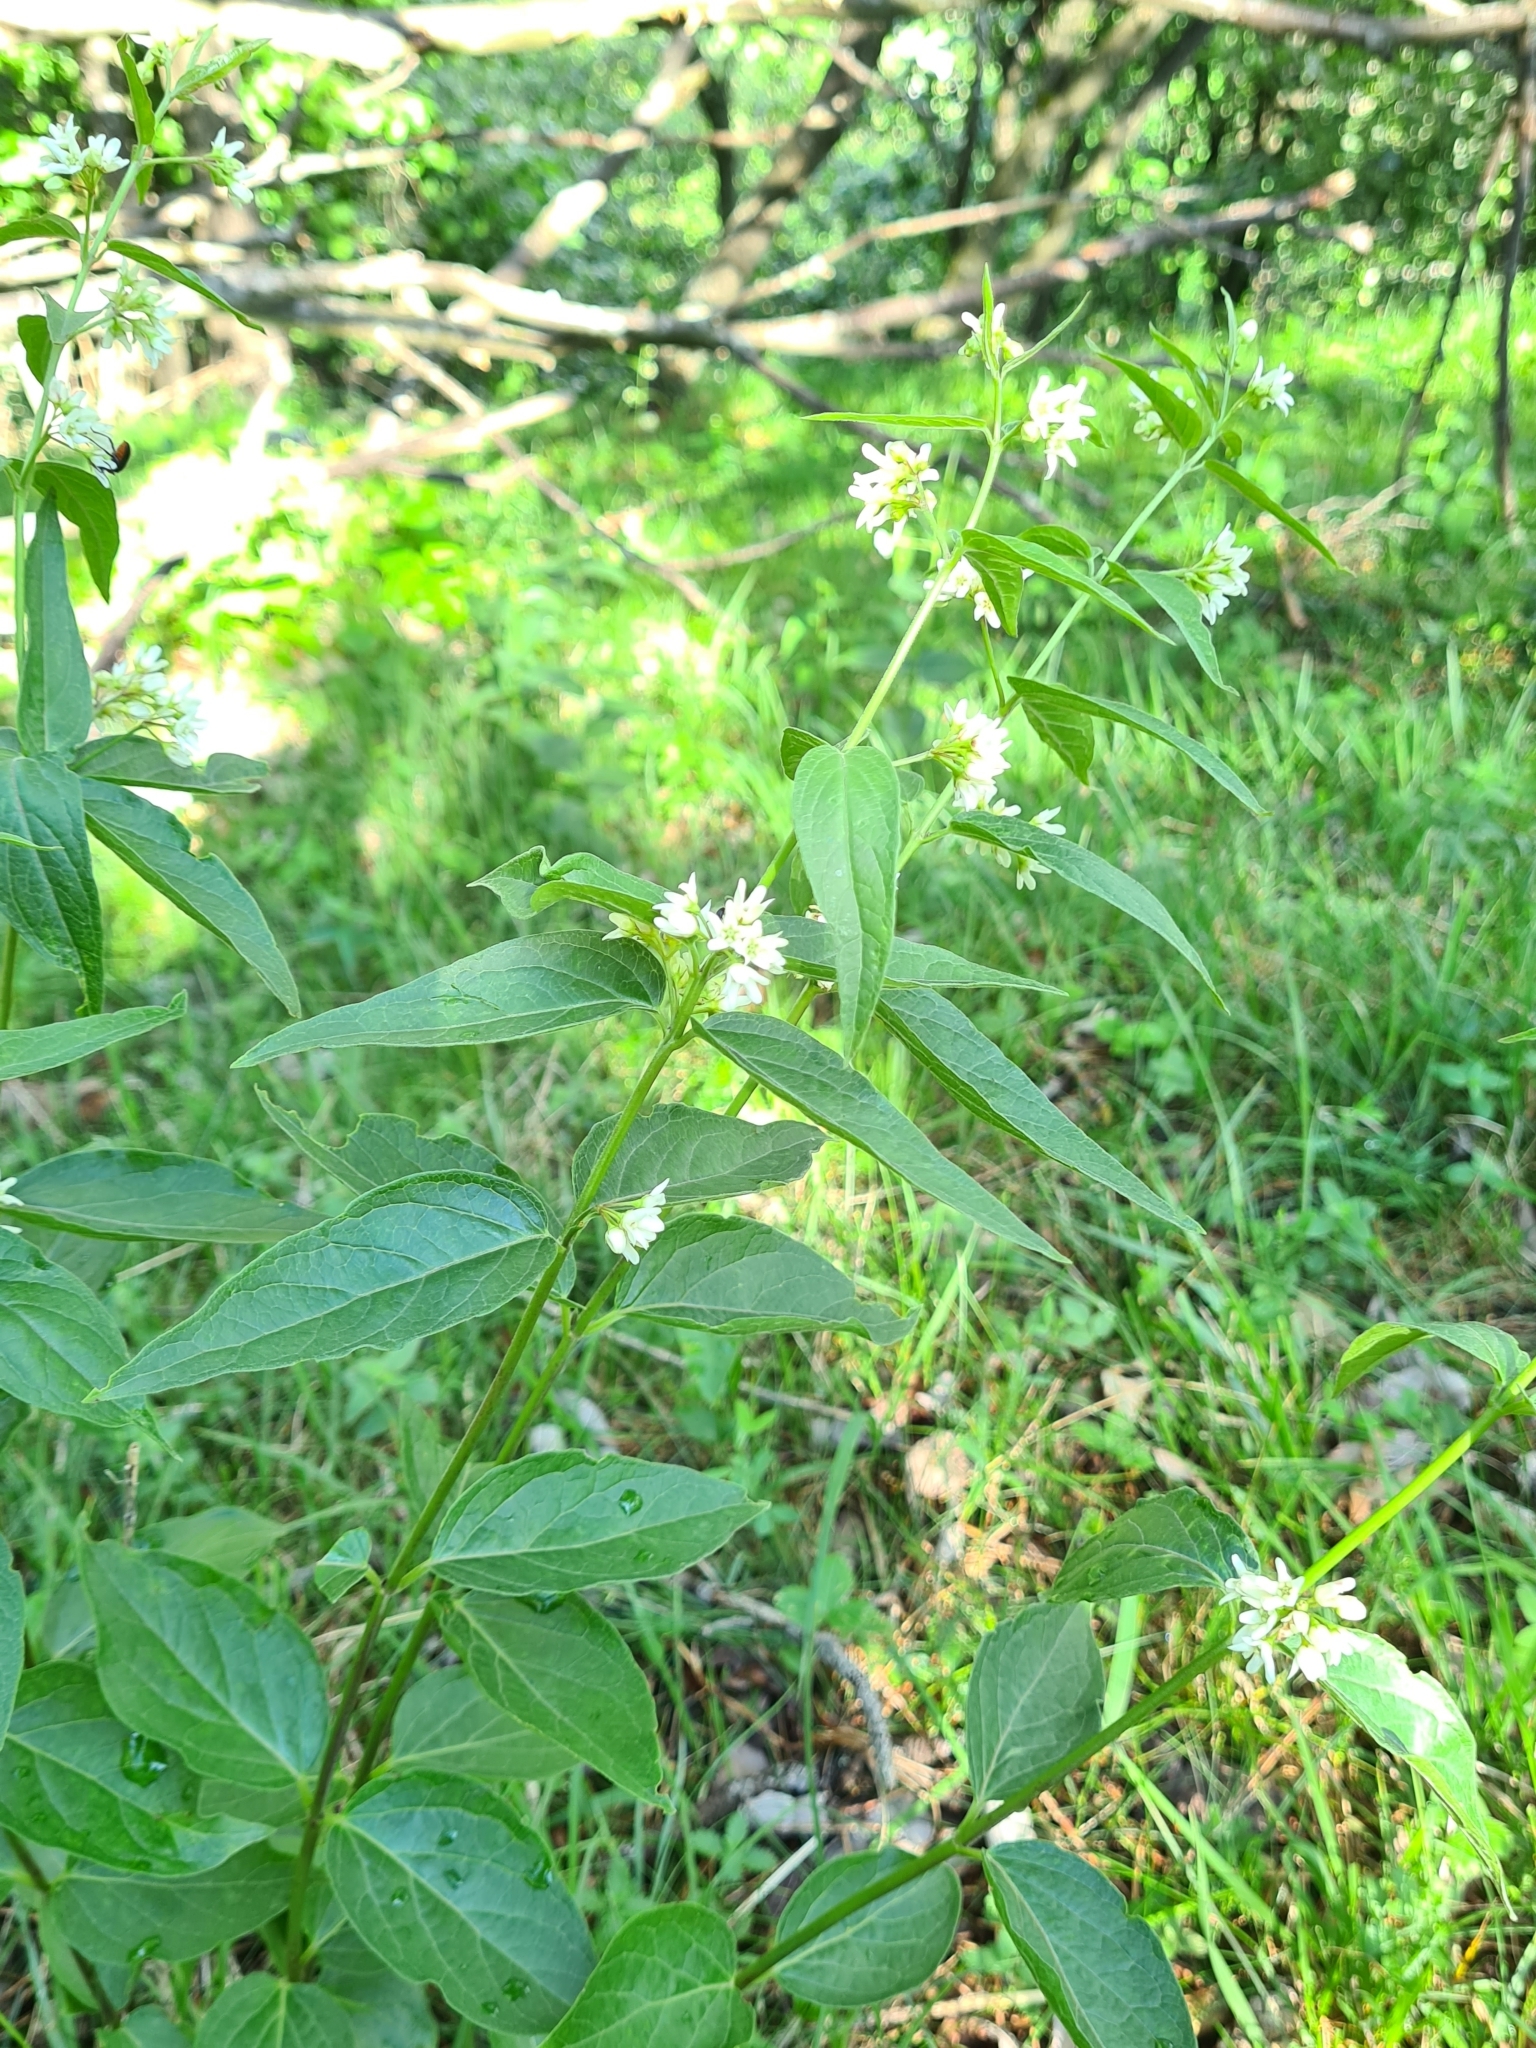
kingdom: Plantae
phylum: Tracheophyta
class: Magnoliopsida
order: Gentianales
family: Apocynaceae
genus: Vincetoxicum
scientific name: Vincetoxicum hirundinaria
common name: White swallowwort
